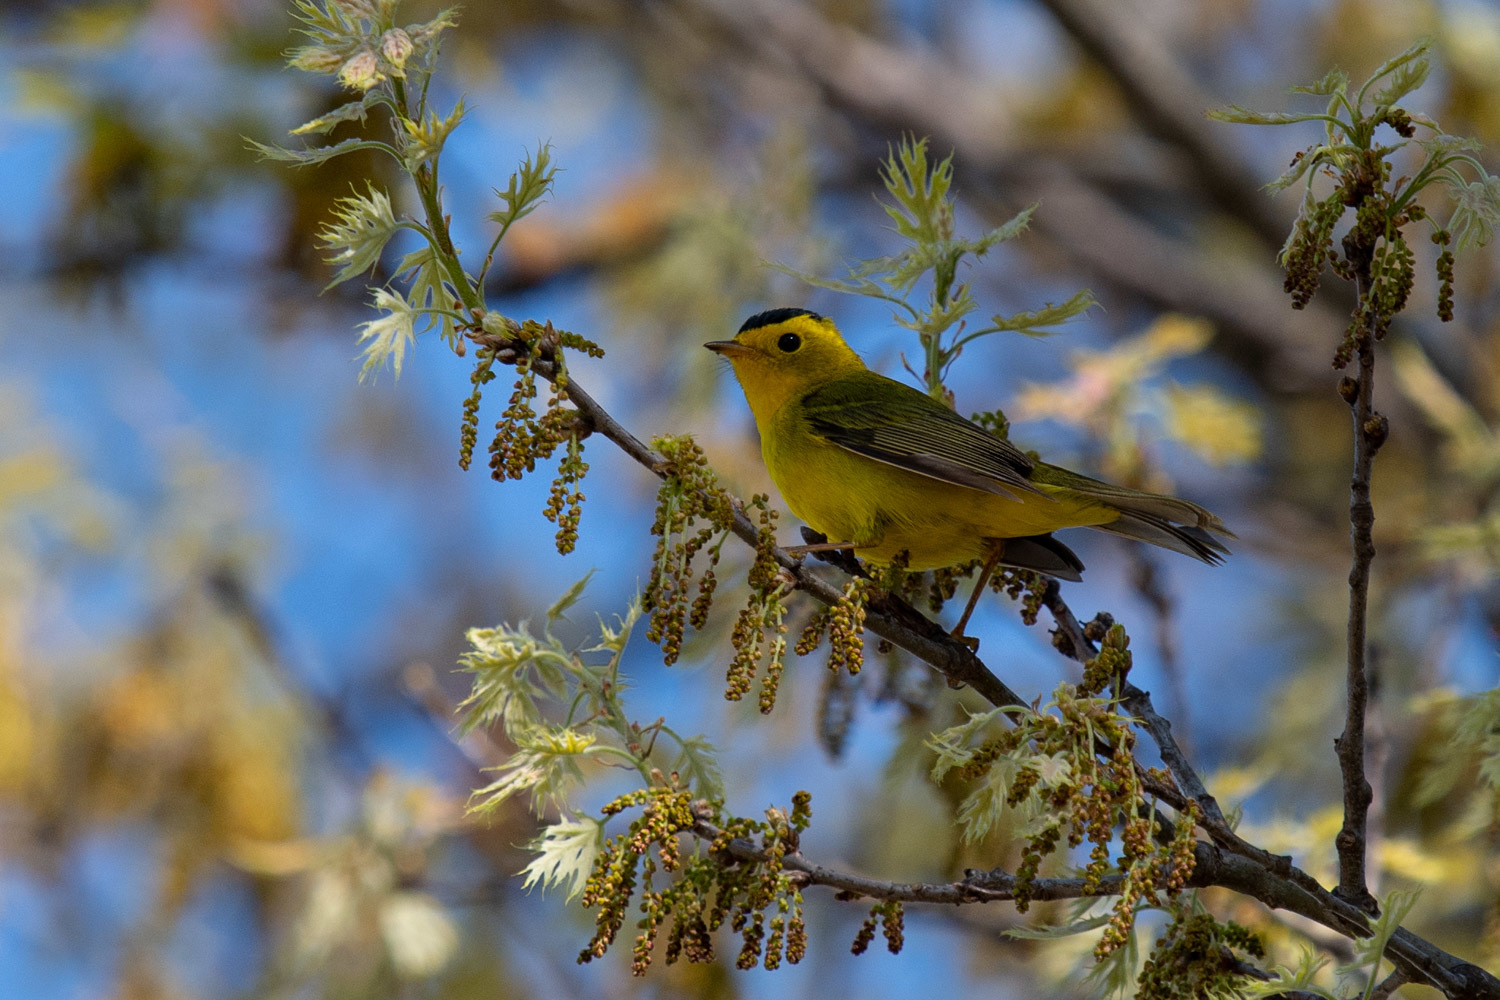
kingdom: Animalia
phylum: Chordata
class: Aves
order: Passeriformes
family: Parulidae
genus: Cardellina
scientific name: Cardellina pusilla
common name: Wilson's warbler
